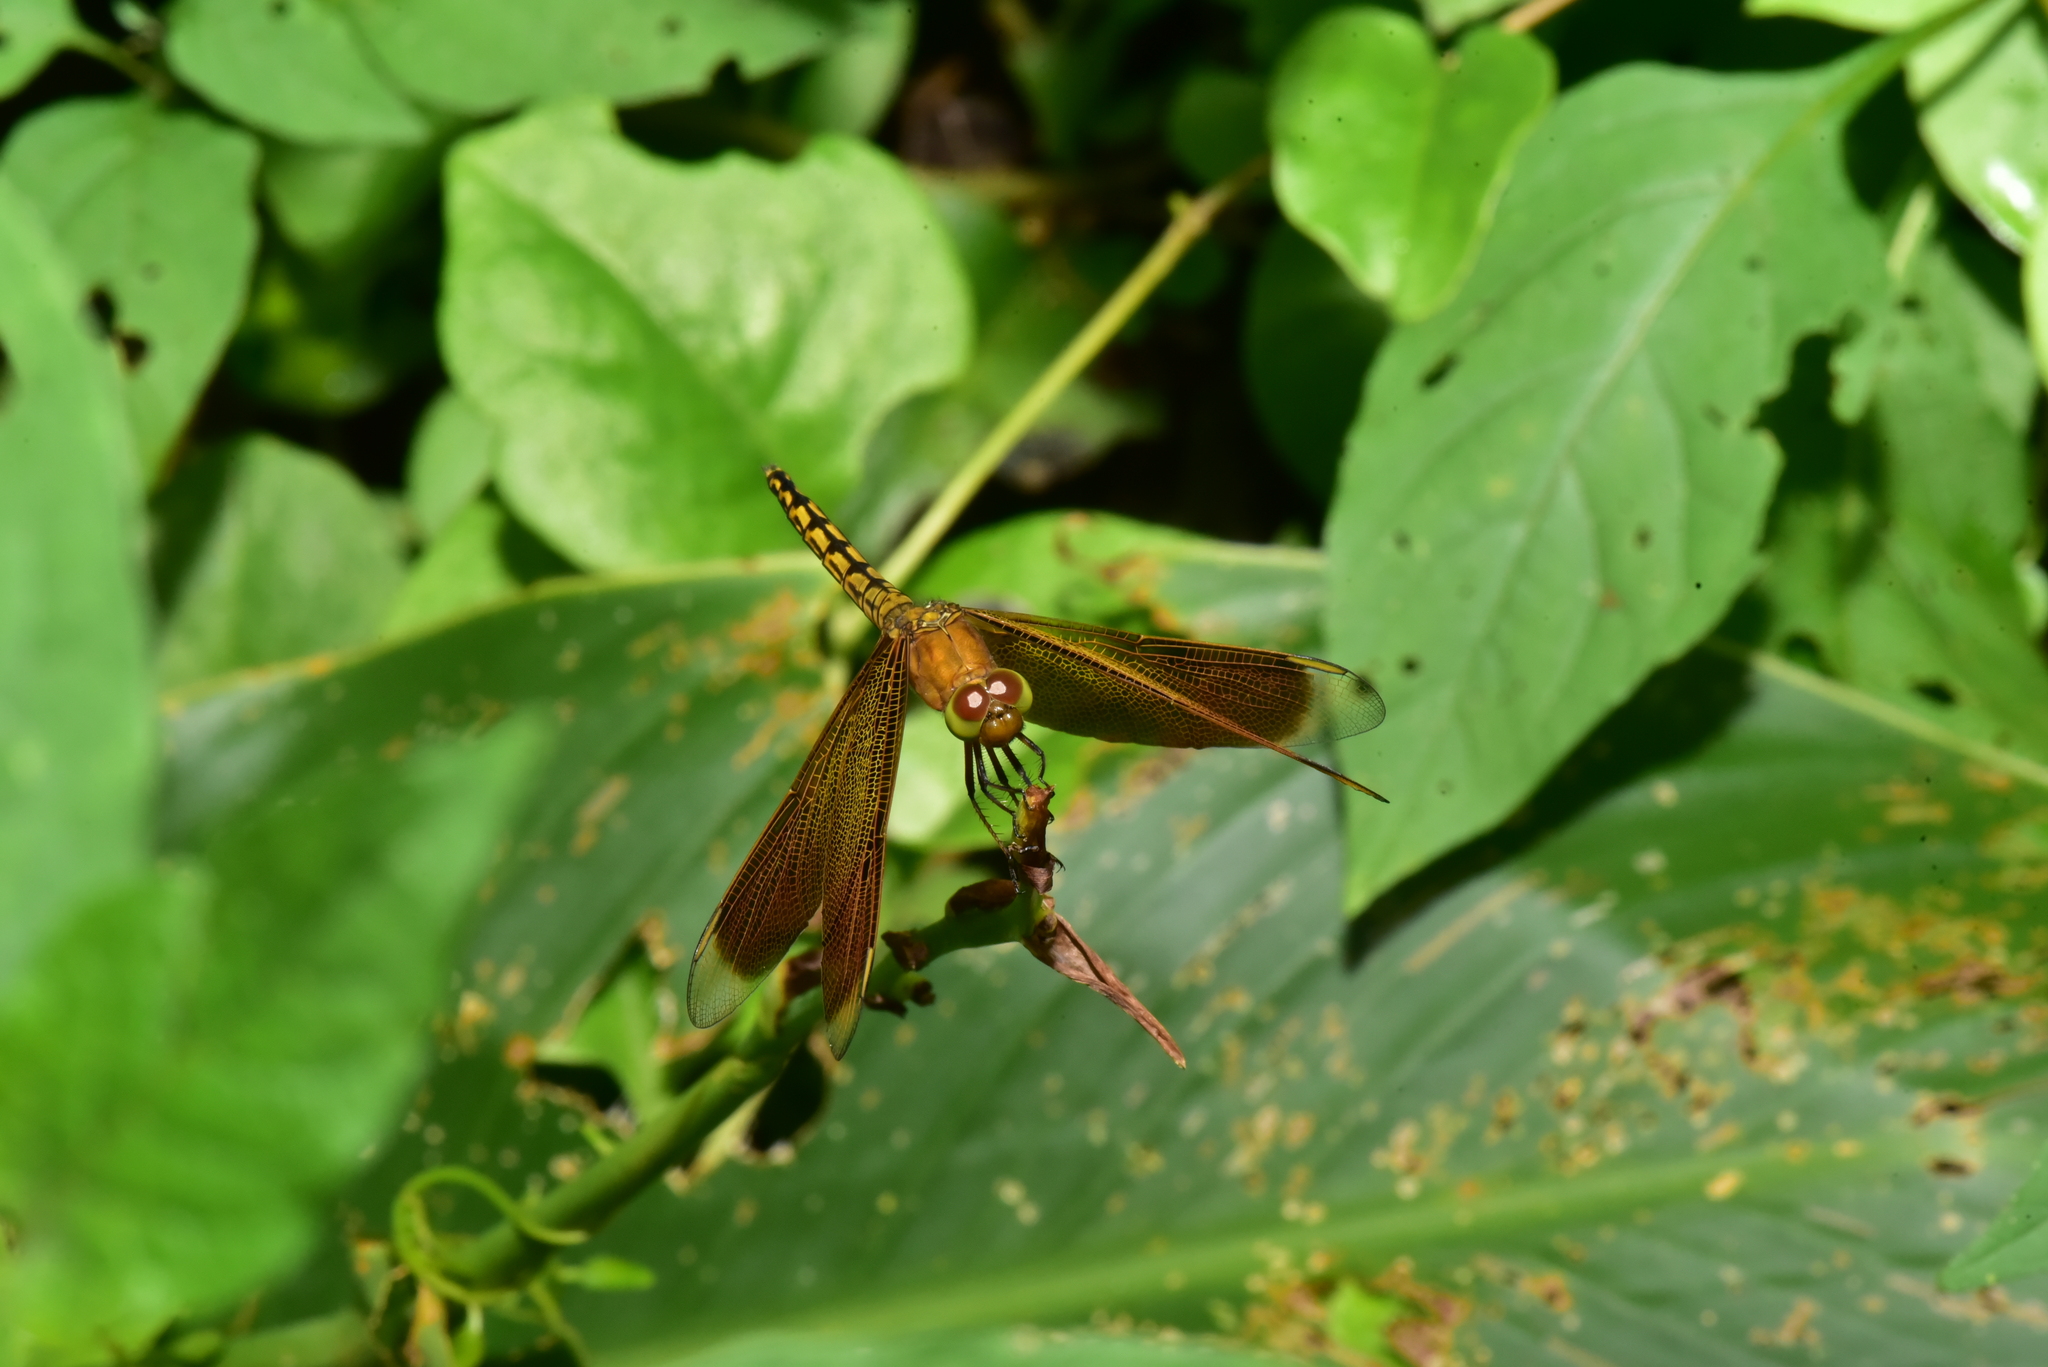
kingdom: Animalia
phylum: Arthropoda
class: Insecta
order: Odonata
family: Libellulidae
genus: Neurothemis
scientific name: Neurothemis taiwanensis
